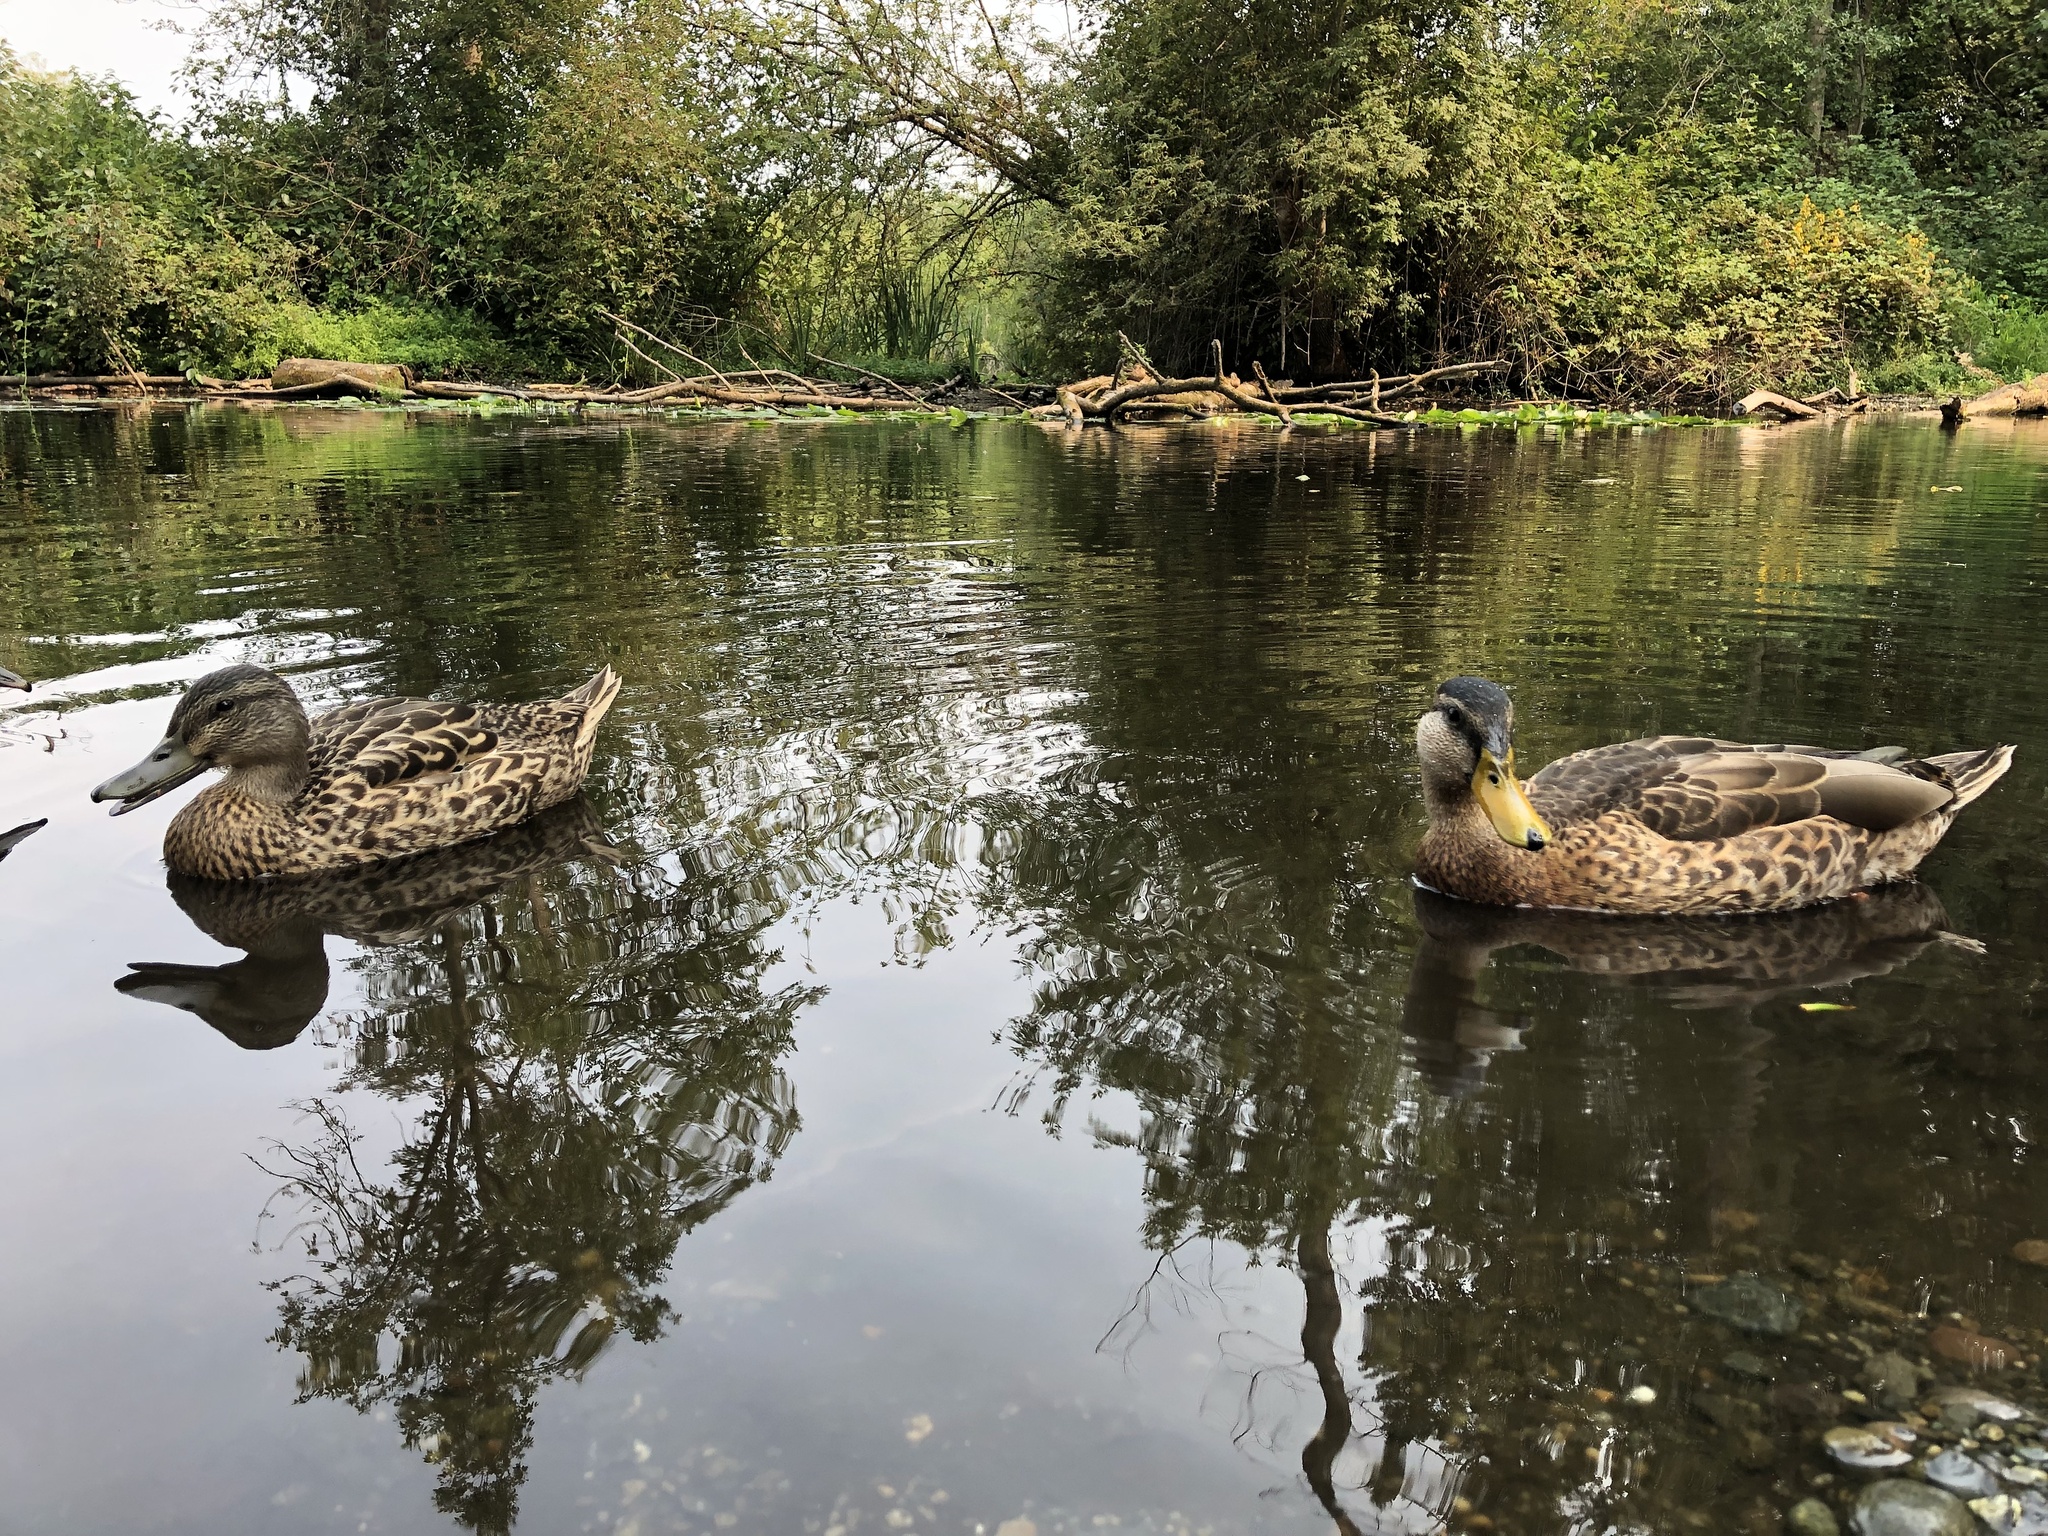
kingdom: Animalia
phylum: Chordata
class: Aves
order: Anseriformes
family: Anatidae
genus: Anas
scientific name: Anas platyrhynchos
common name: Mallard
